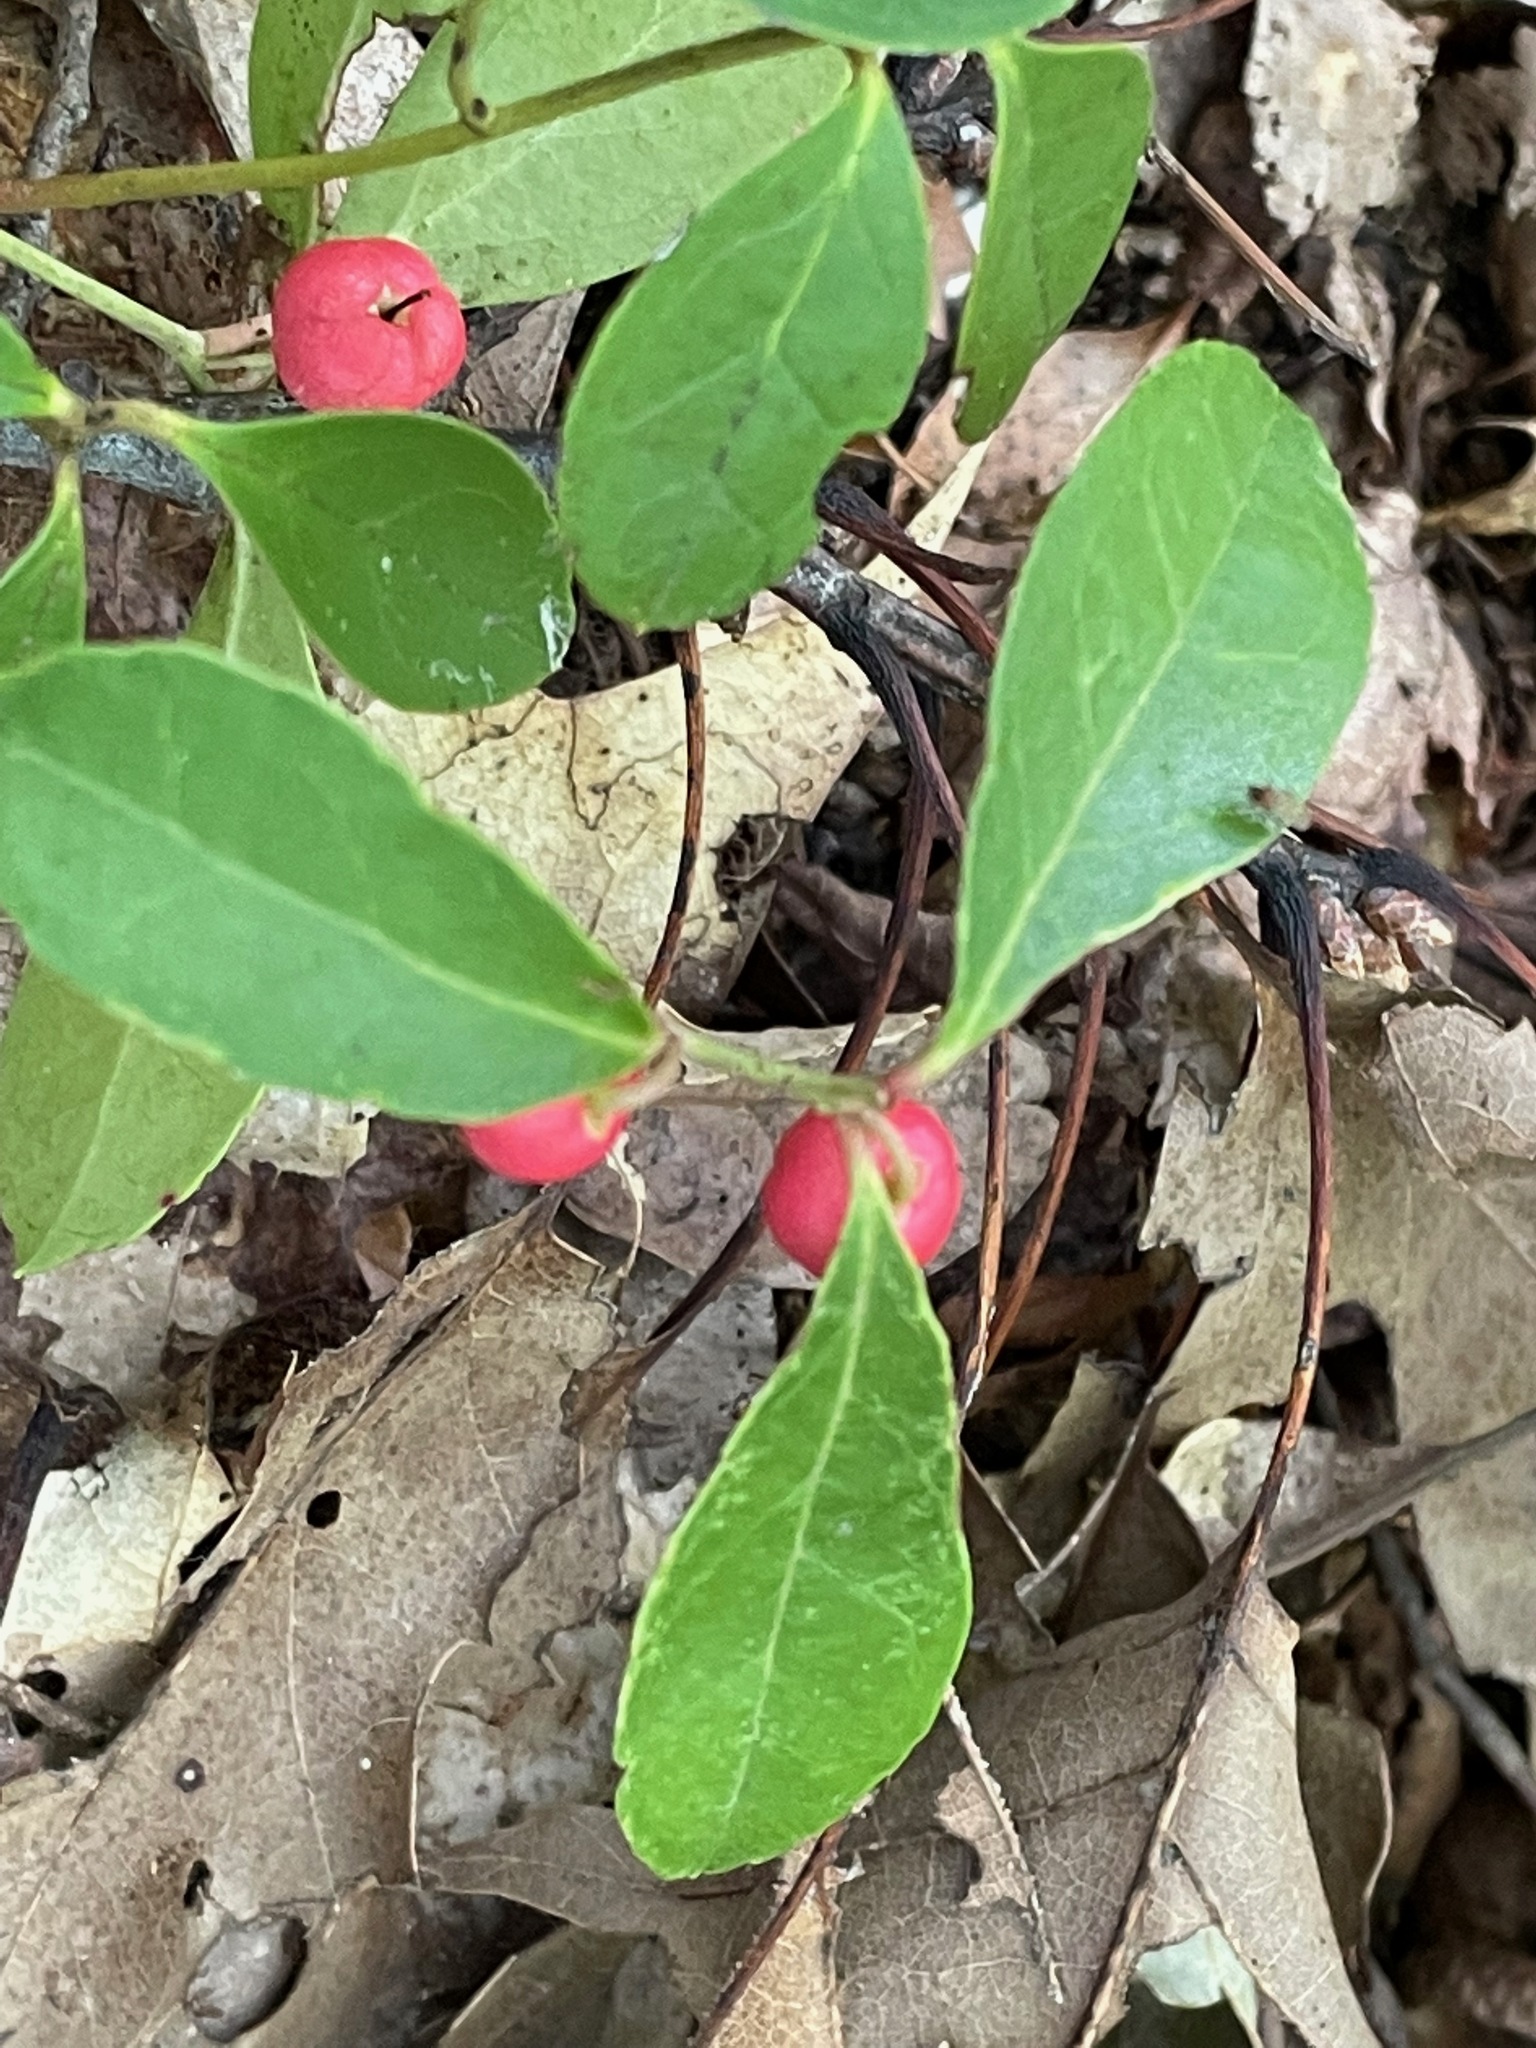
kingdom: Plantae
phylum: Tracheophyta
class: Magnoliopsida
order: Ericales
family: Ericaceae
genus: Gaultheria
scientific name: Gaultheria procumbens
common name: Checkerberry
